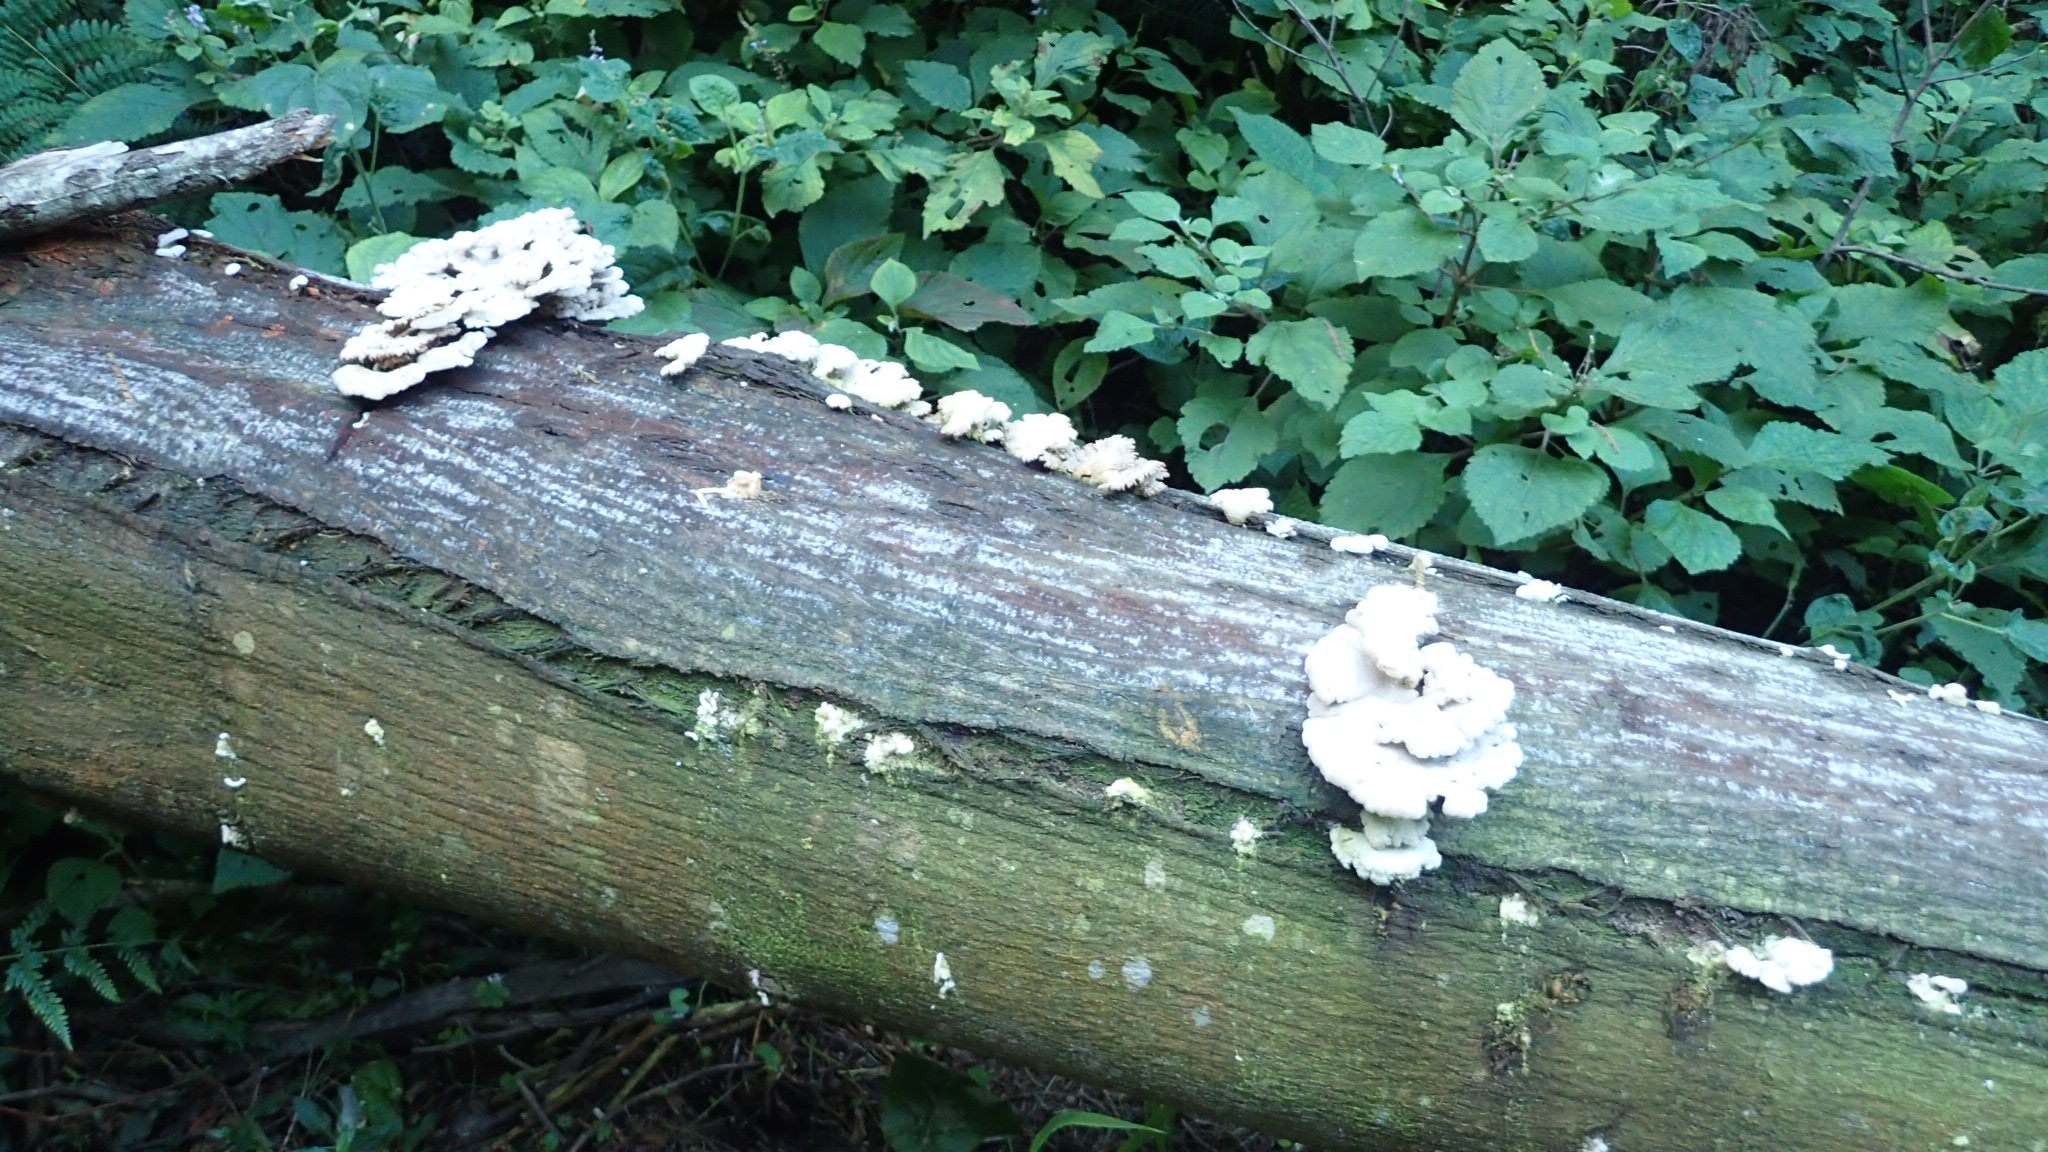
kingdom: Fungi
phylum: Basidiomycota
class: Agaricomycetes
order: Agaricales
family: Schizophyllaceae
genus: Schizophyllum
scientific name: Schizophyllum commune
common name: Common porecrust
